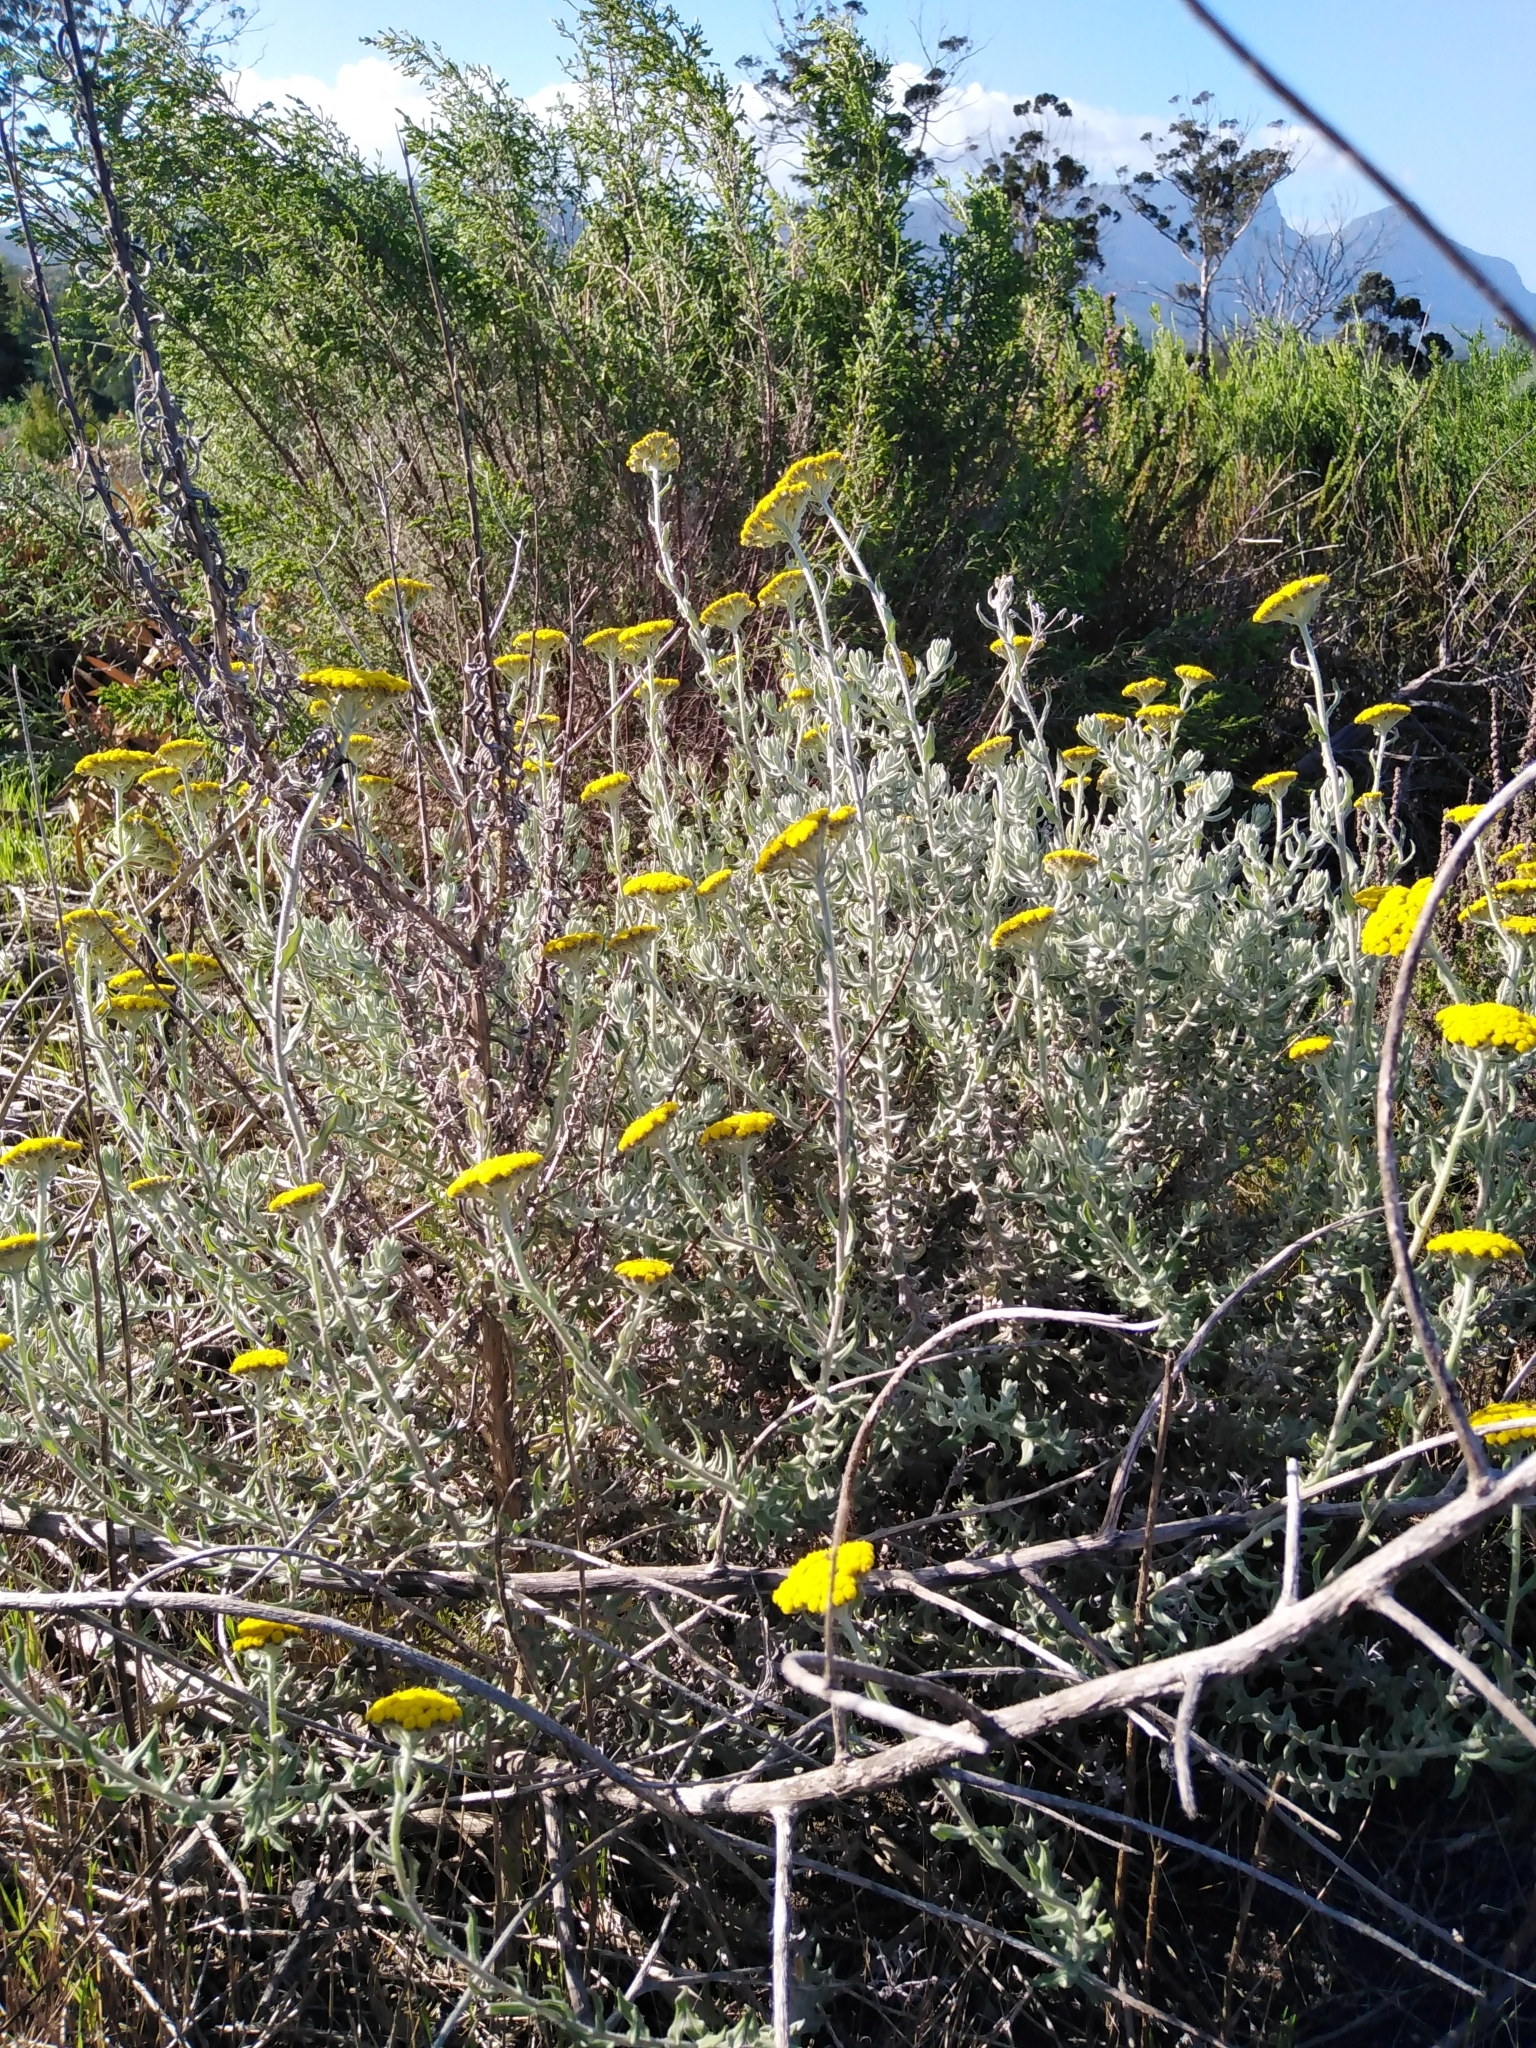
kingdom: Plantae
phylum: Tracheophyta
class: Magnoliopsida
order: Asterales
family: Asteraceae
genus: Helichrysum
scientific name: Helichrysum dasyanthum
